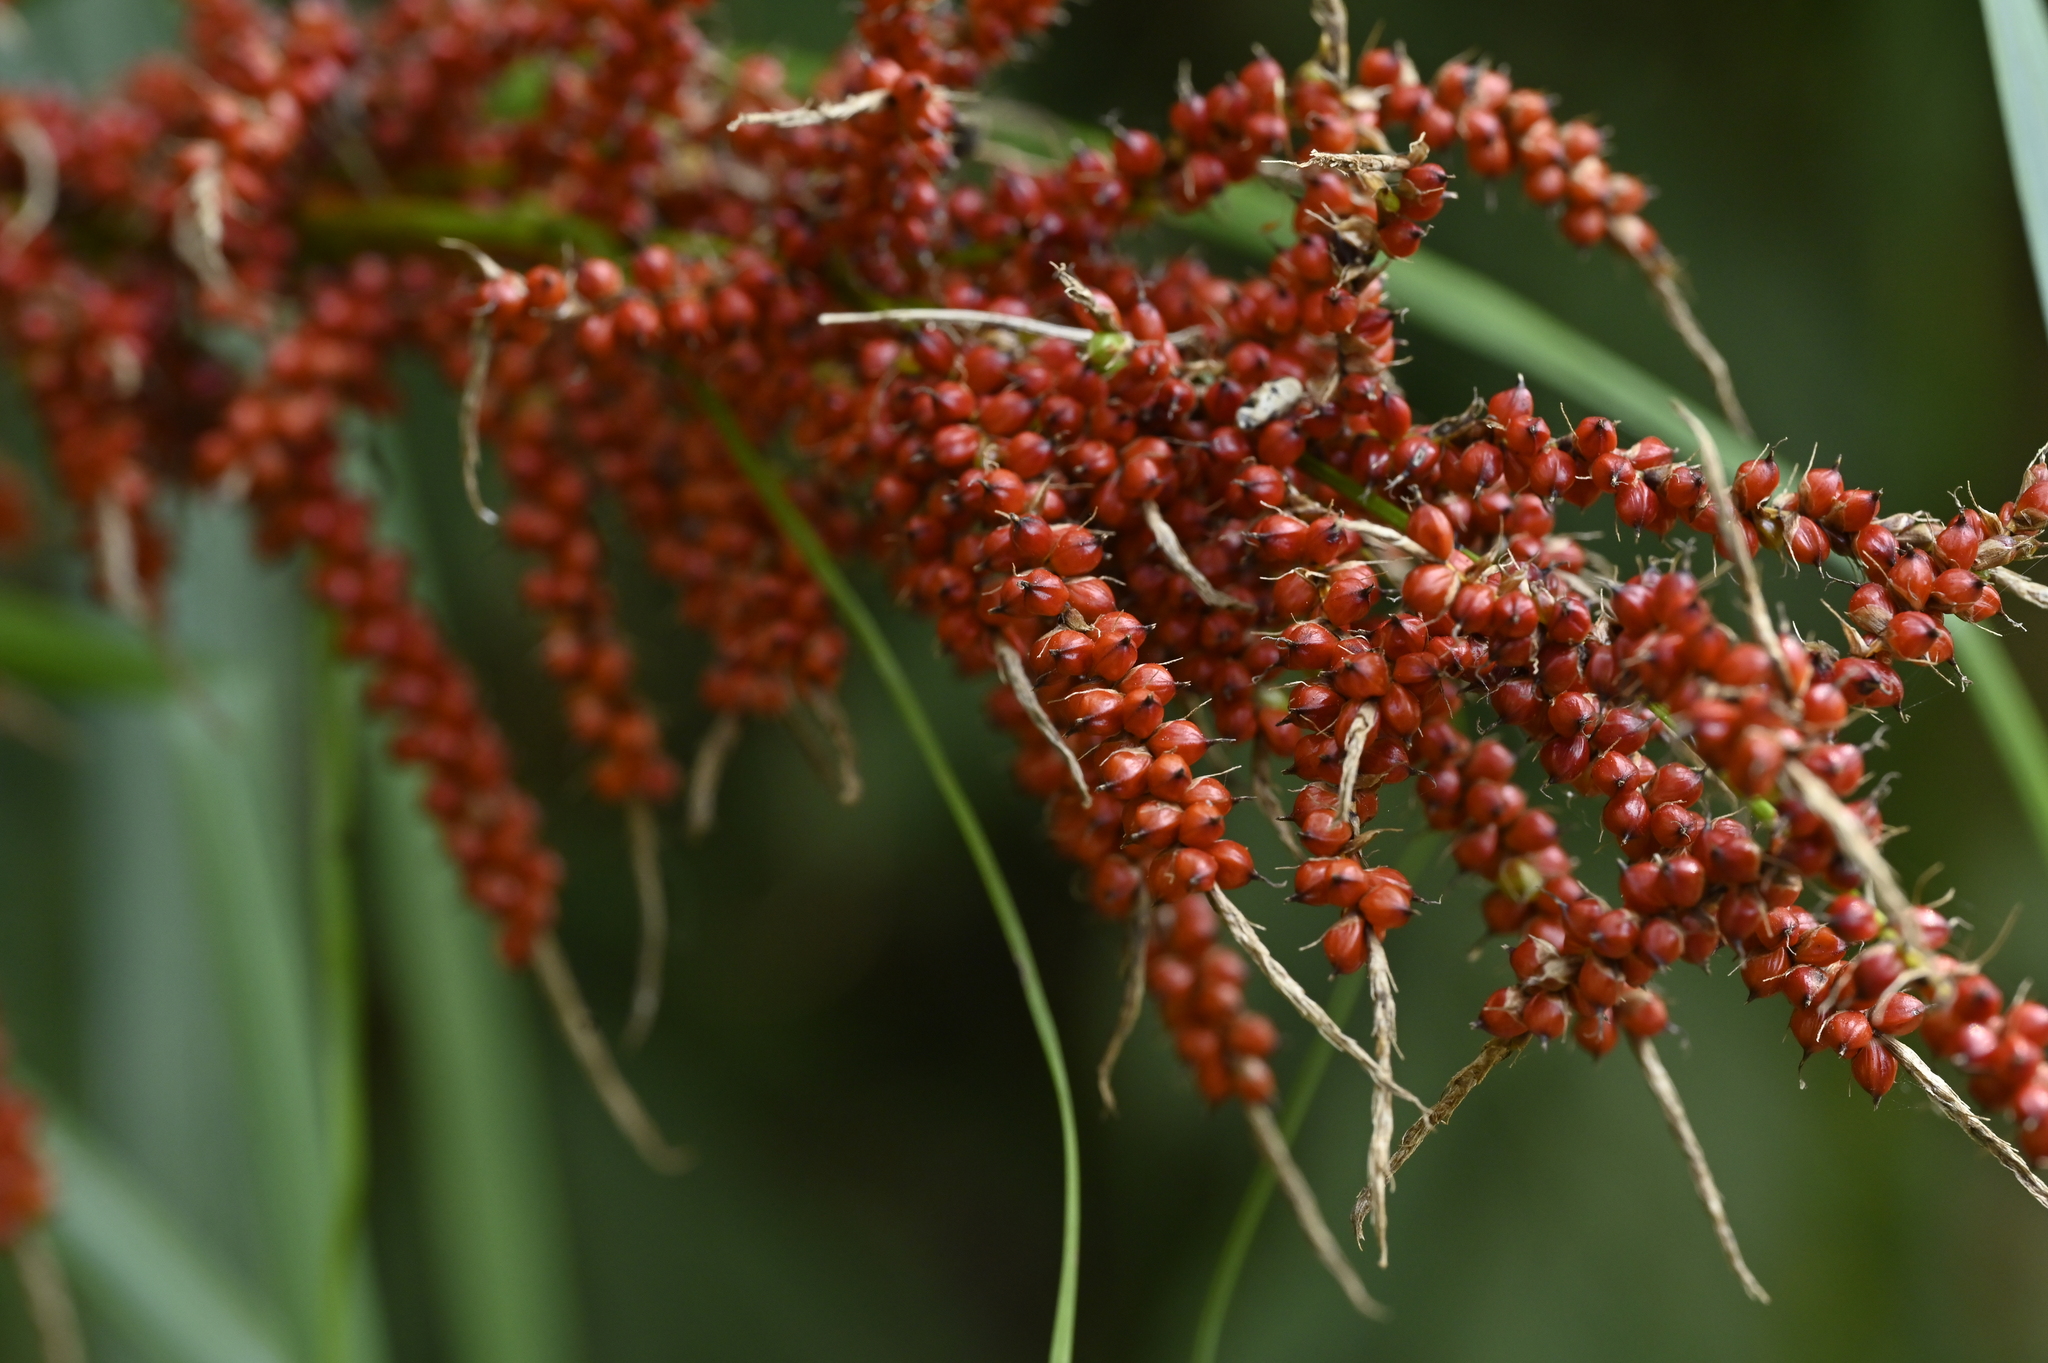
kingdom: Plantae
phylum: Tracheophyta
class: Liliopsida
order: Poales
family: Cyperaceae
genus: Carex
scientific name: Carex baccans
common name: Crimson seeded sedge
